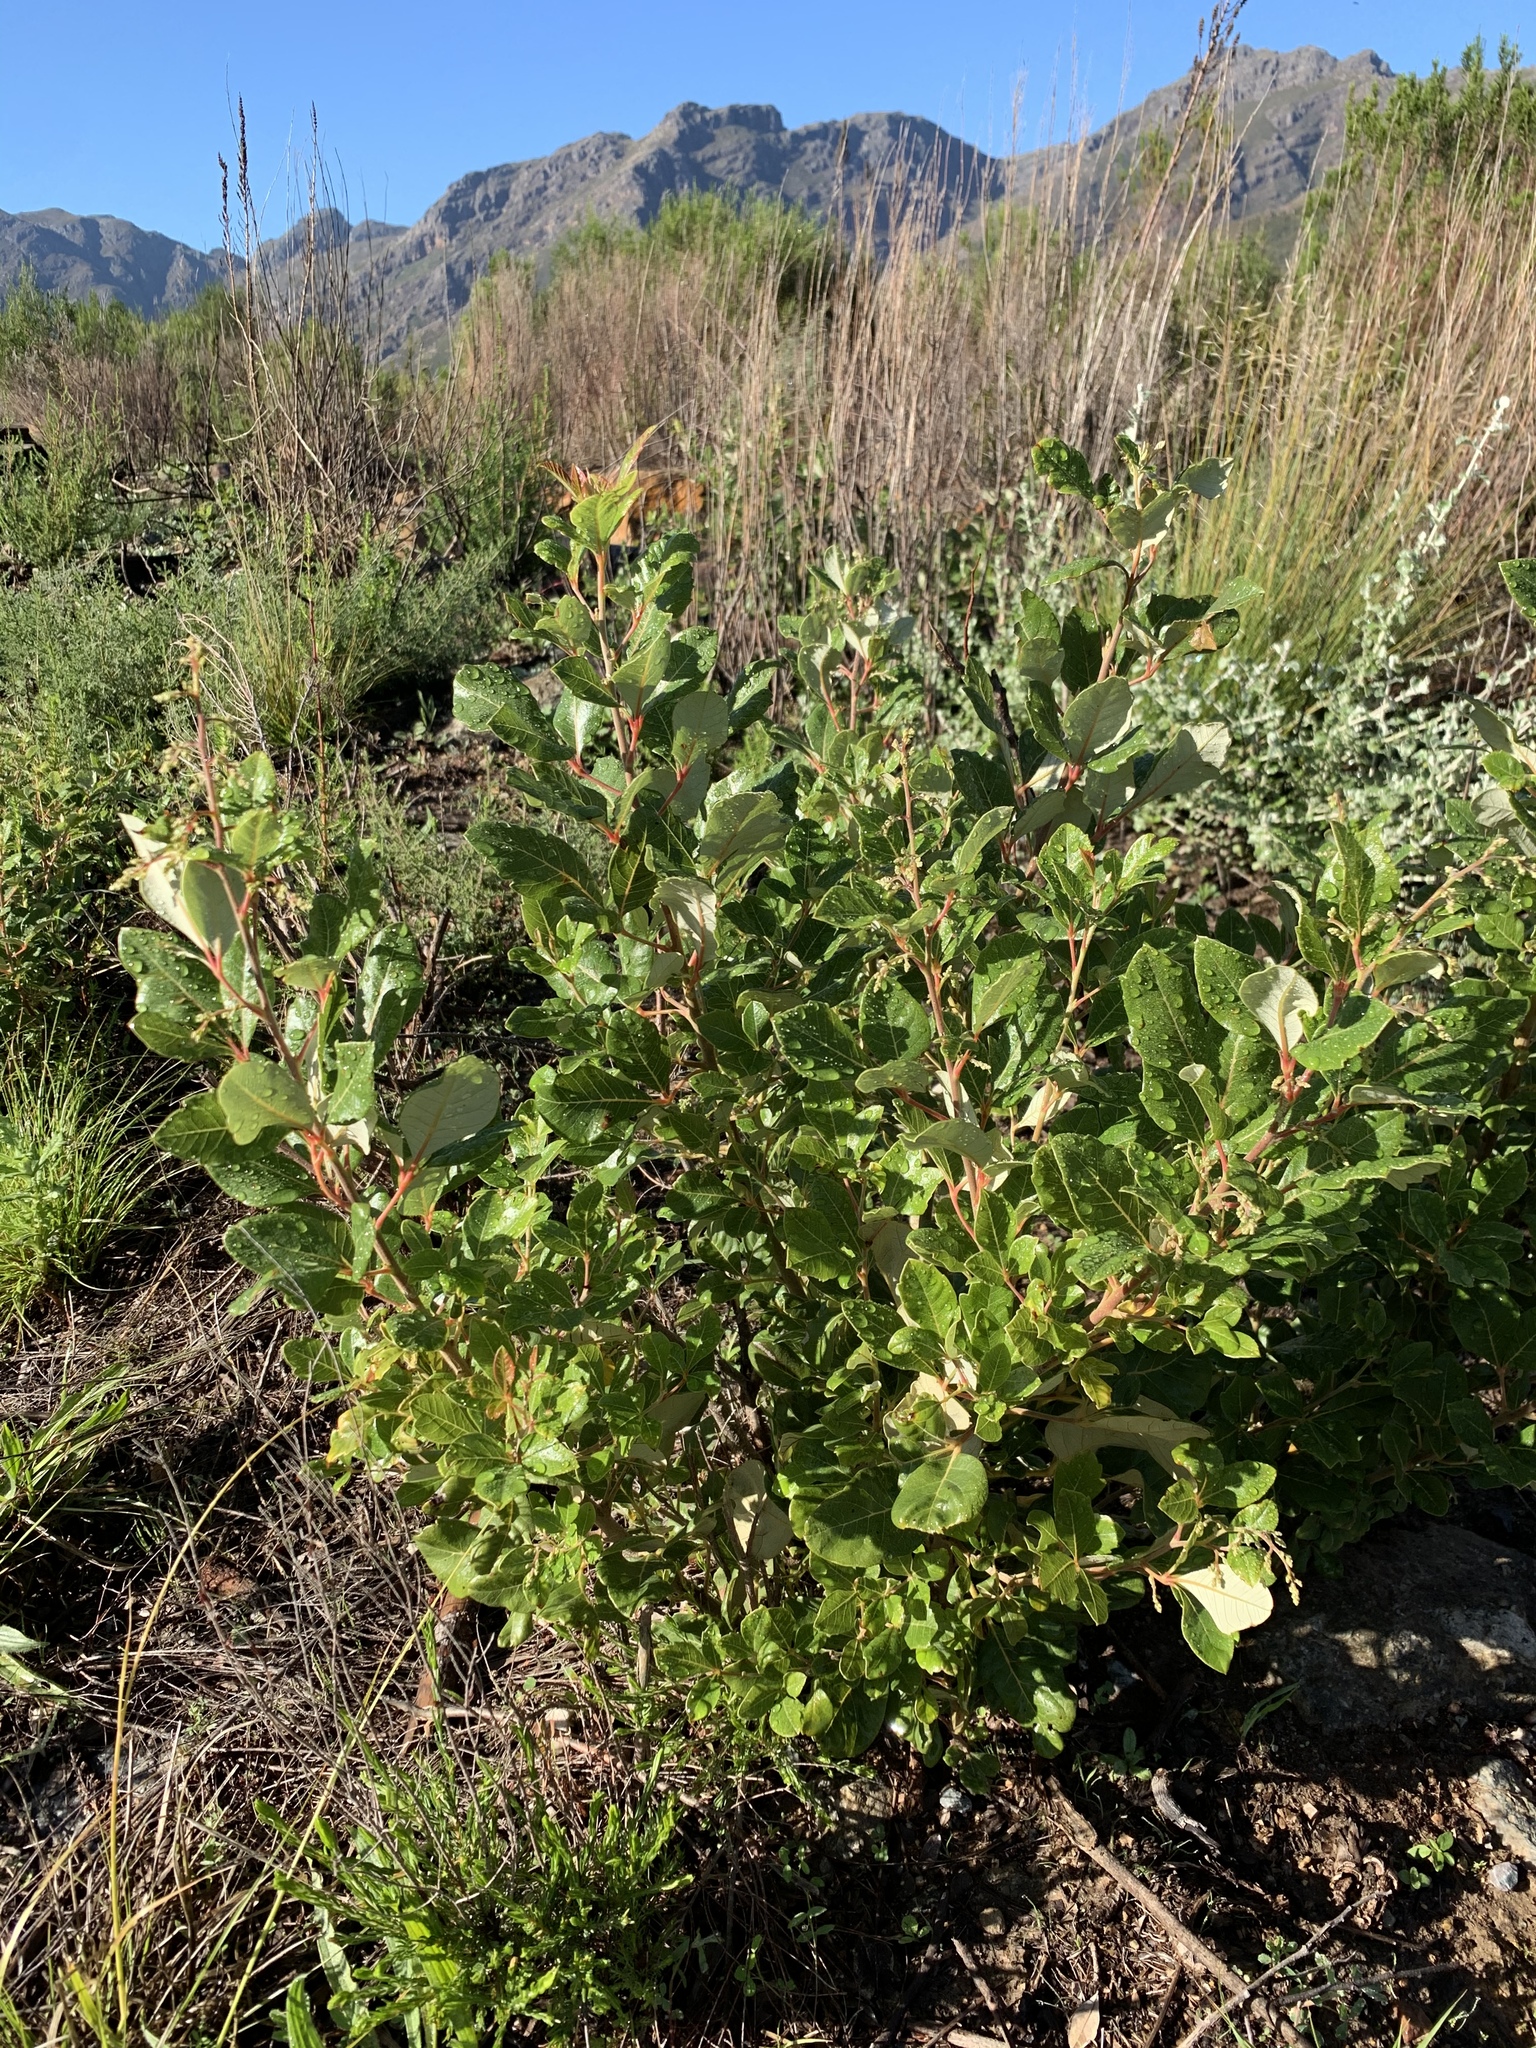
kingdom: Plantae
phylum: Tracheophyta
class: Magnoliopsida
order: Sapindales
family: Anacardiaceae
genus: Searsia
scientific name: Searsia tomentosa
